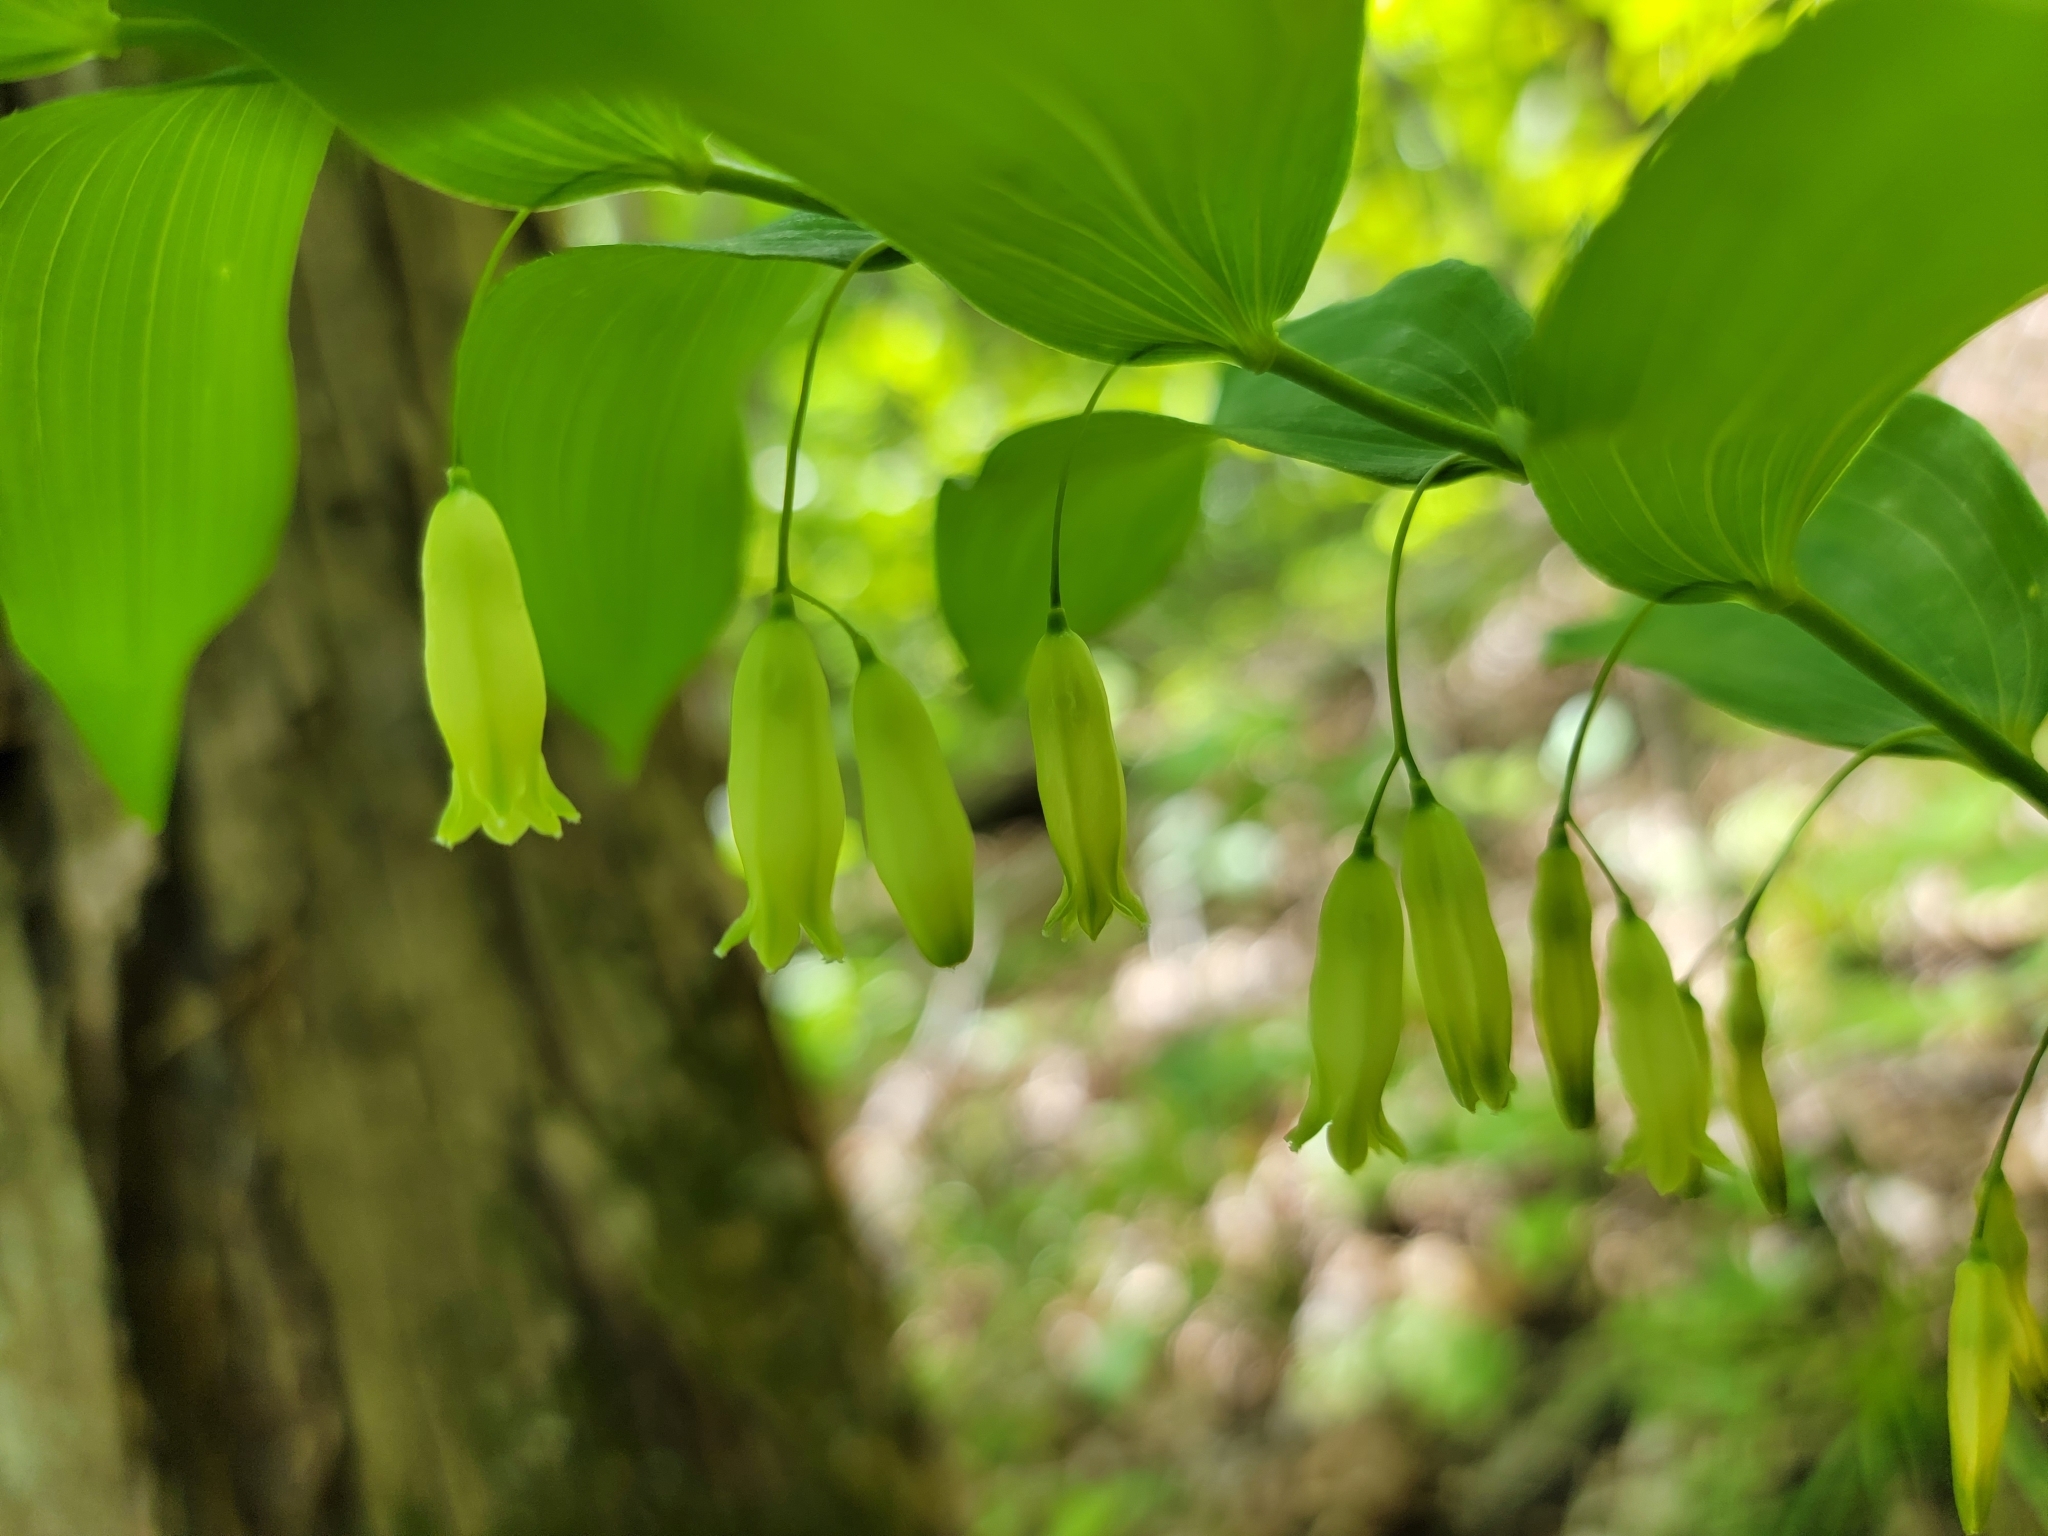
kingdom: Plantae
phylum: Tracheophyta
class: Liliopsida
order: Asparagales
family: Asparagaceae
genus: Polygonatum
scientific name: Polygonatum biflorum
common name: American solomon's-seal
